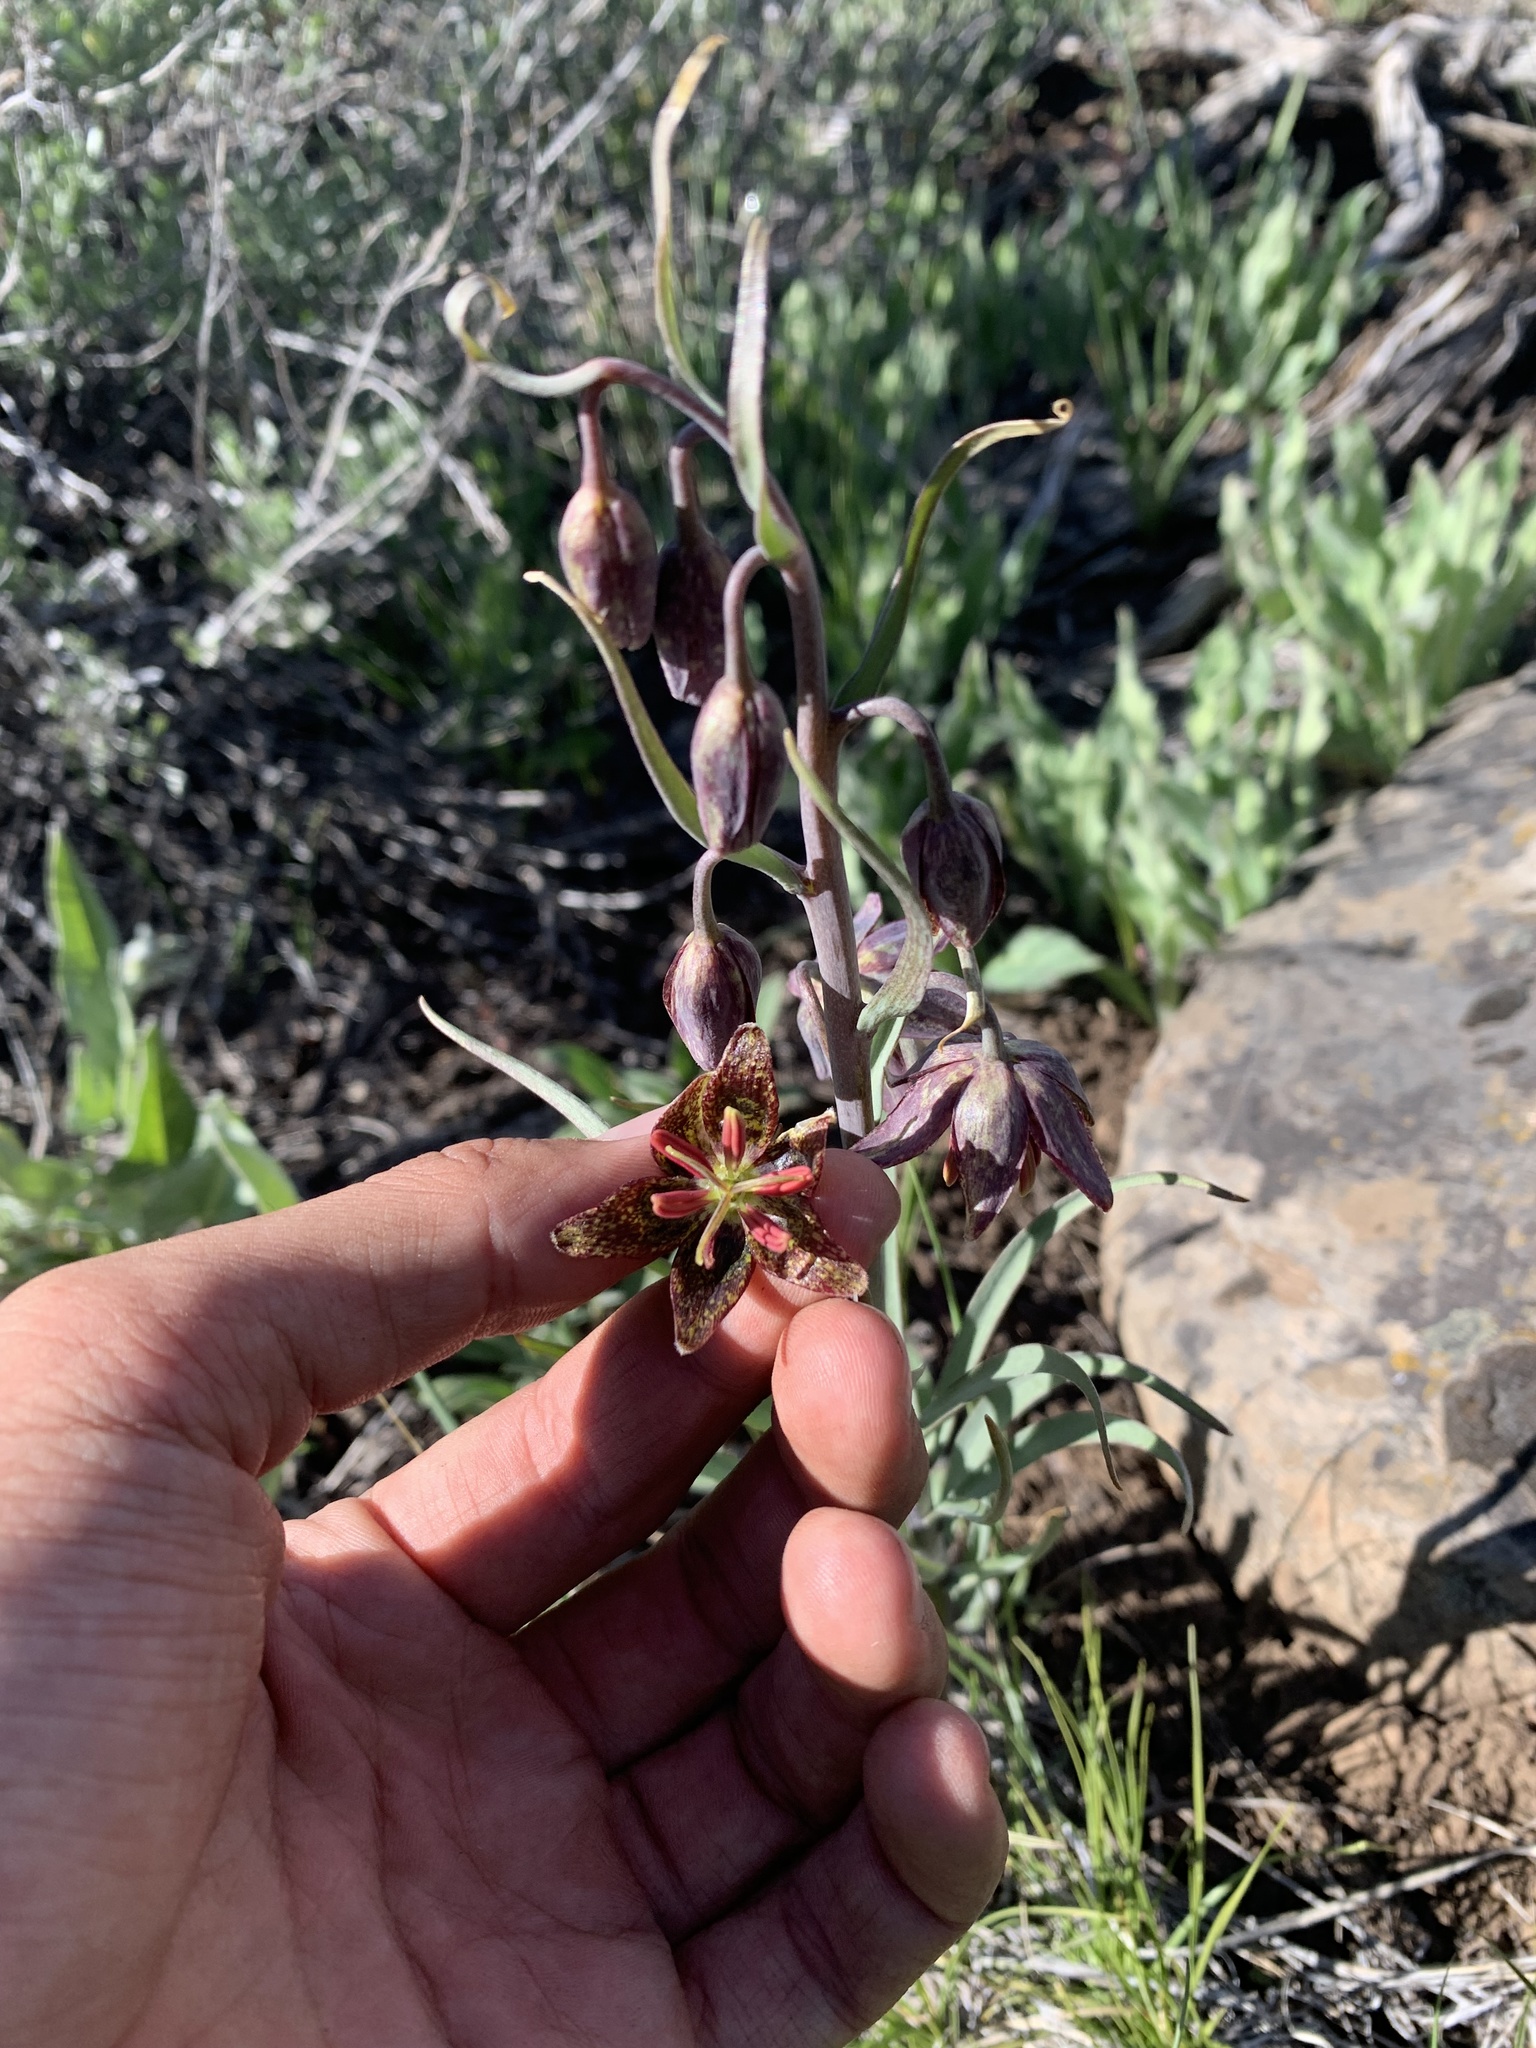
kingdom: Plantae
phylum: Tracheophyta
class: Liliopsida
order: Liliales
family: Liliaceae
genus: Fritillaria
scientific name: Fritillaria atropurpurea
